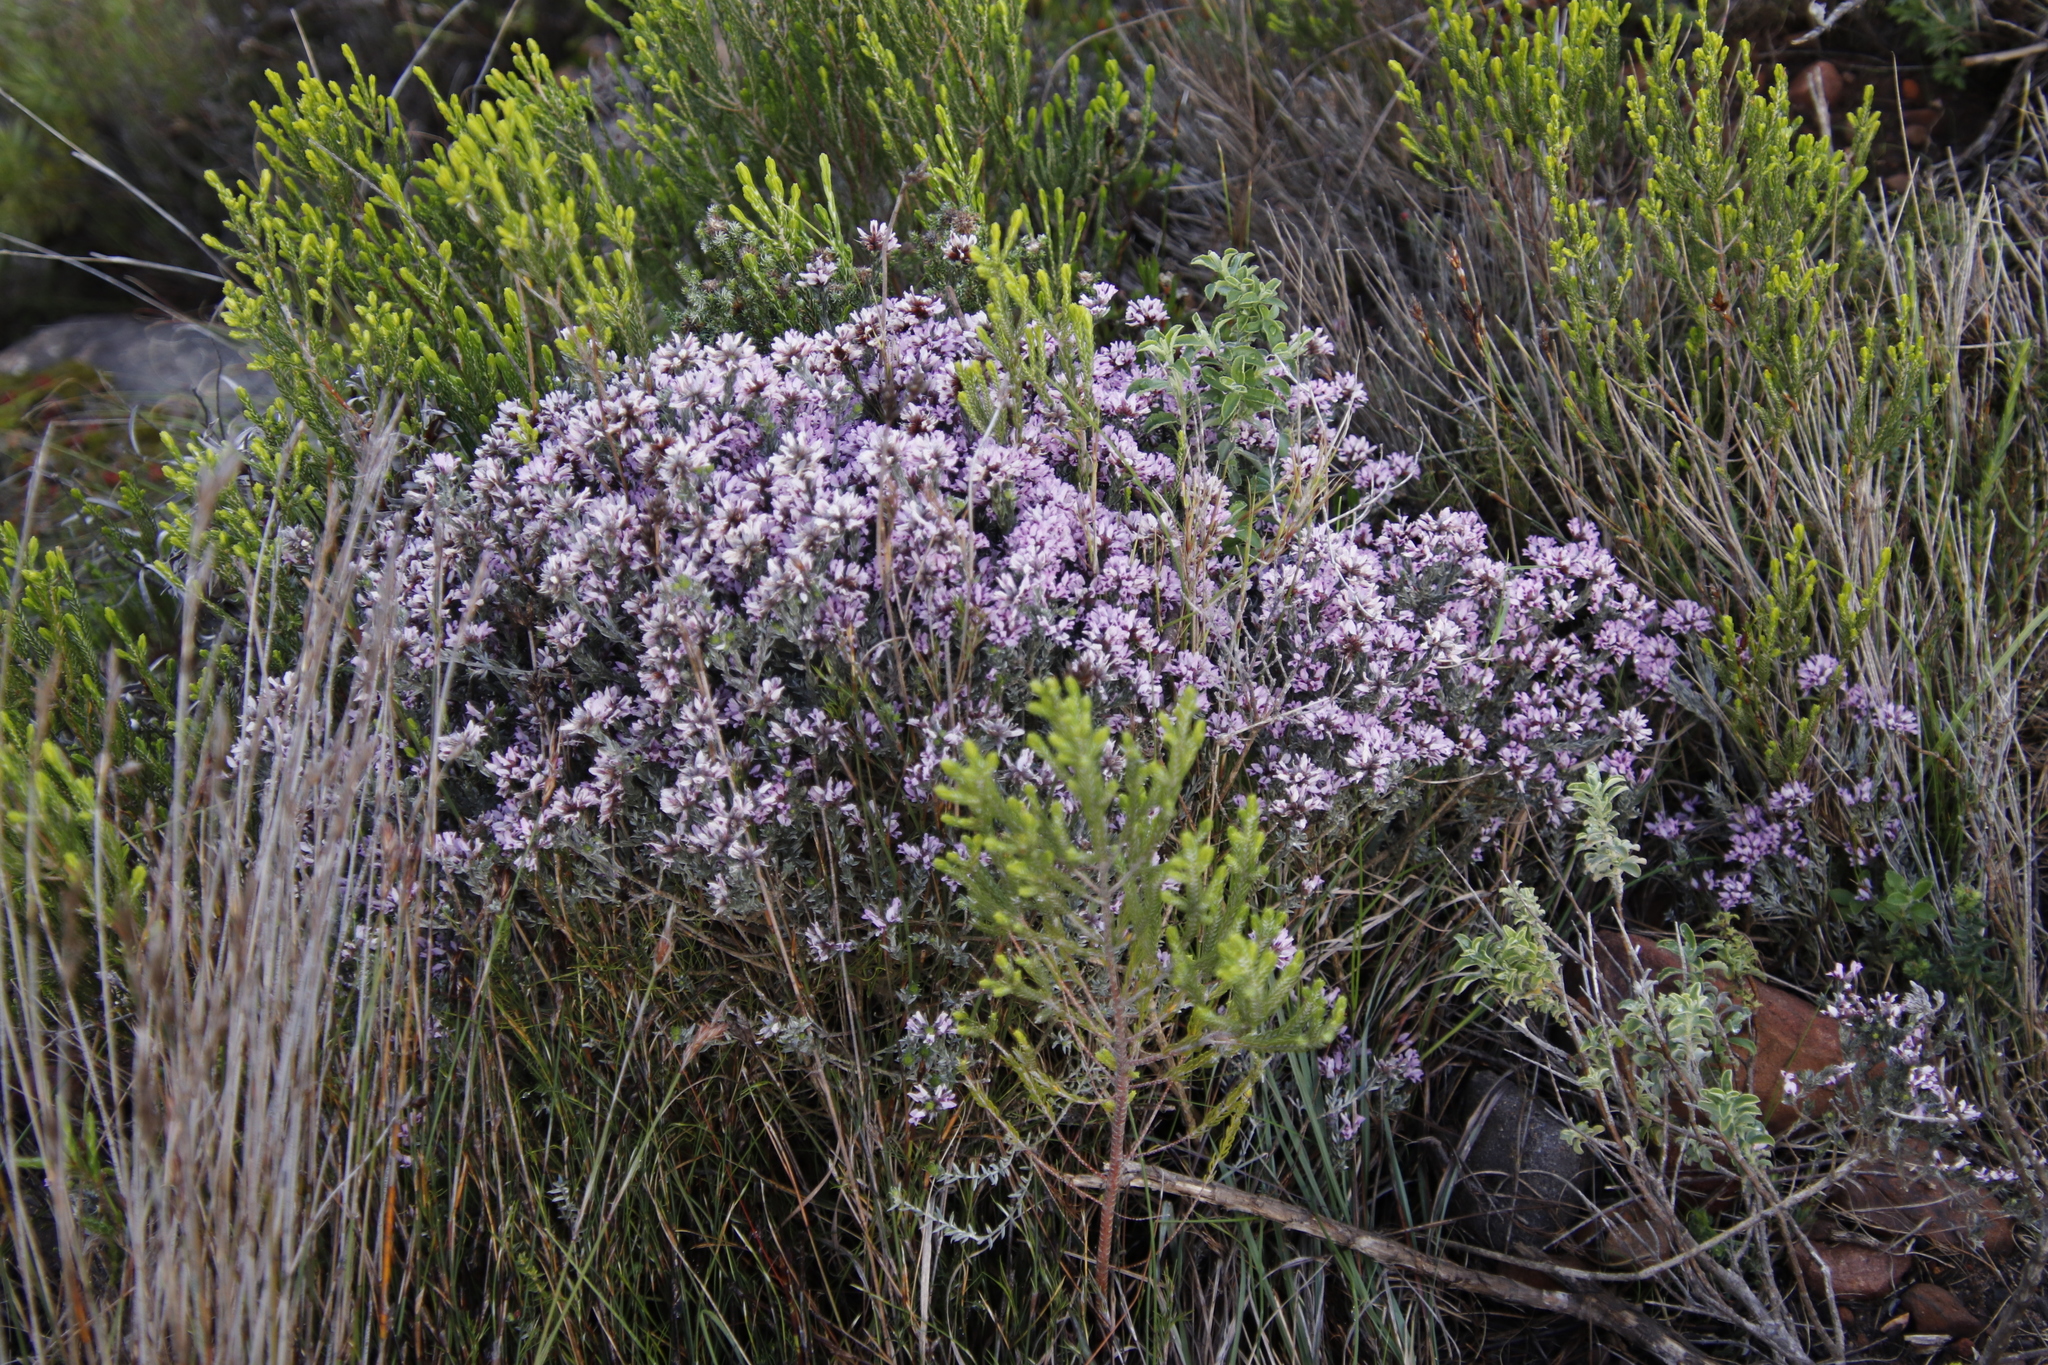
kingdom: Plantae
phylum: Tracheophyta
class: Magnoliopsida
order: Fabales
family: Fabaceae
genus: Amphithalea
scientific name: Amphithalea ericifolia
